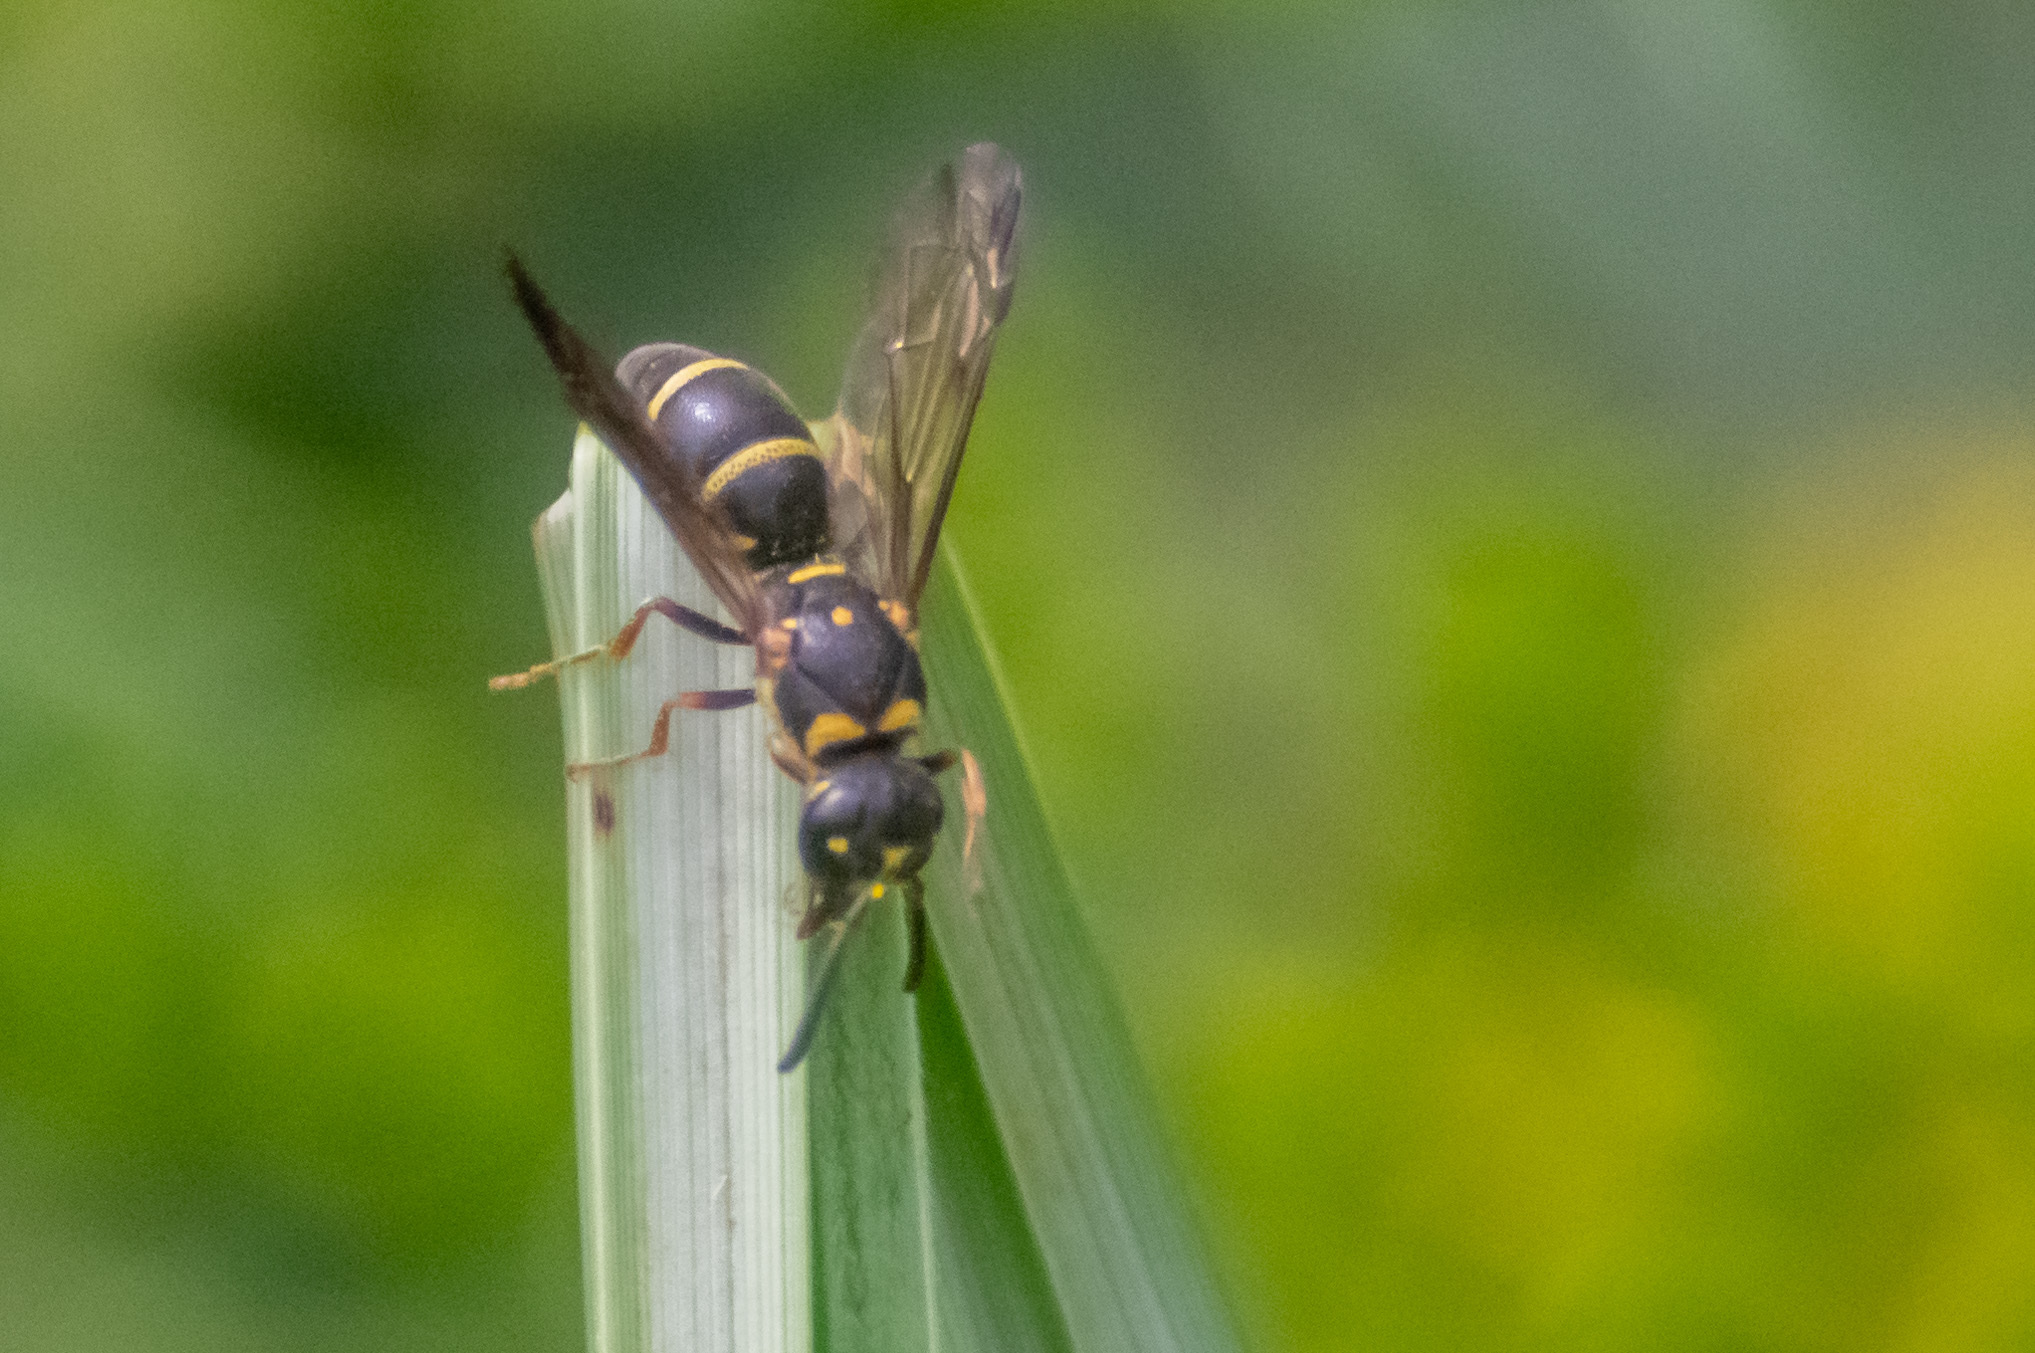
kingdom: Animalia
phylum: Arthropoda
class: Insecta
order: Hymenoptera
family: Eumenidae
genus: Parancistrocerus
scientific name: Parancistrocerus fulvipes
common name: Potter wasp
